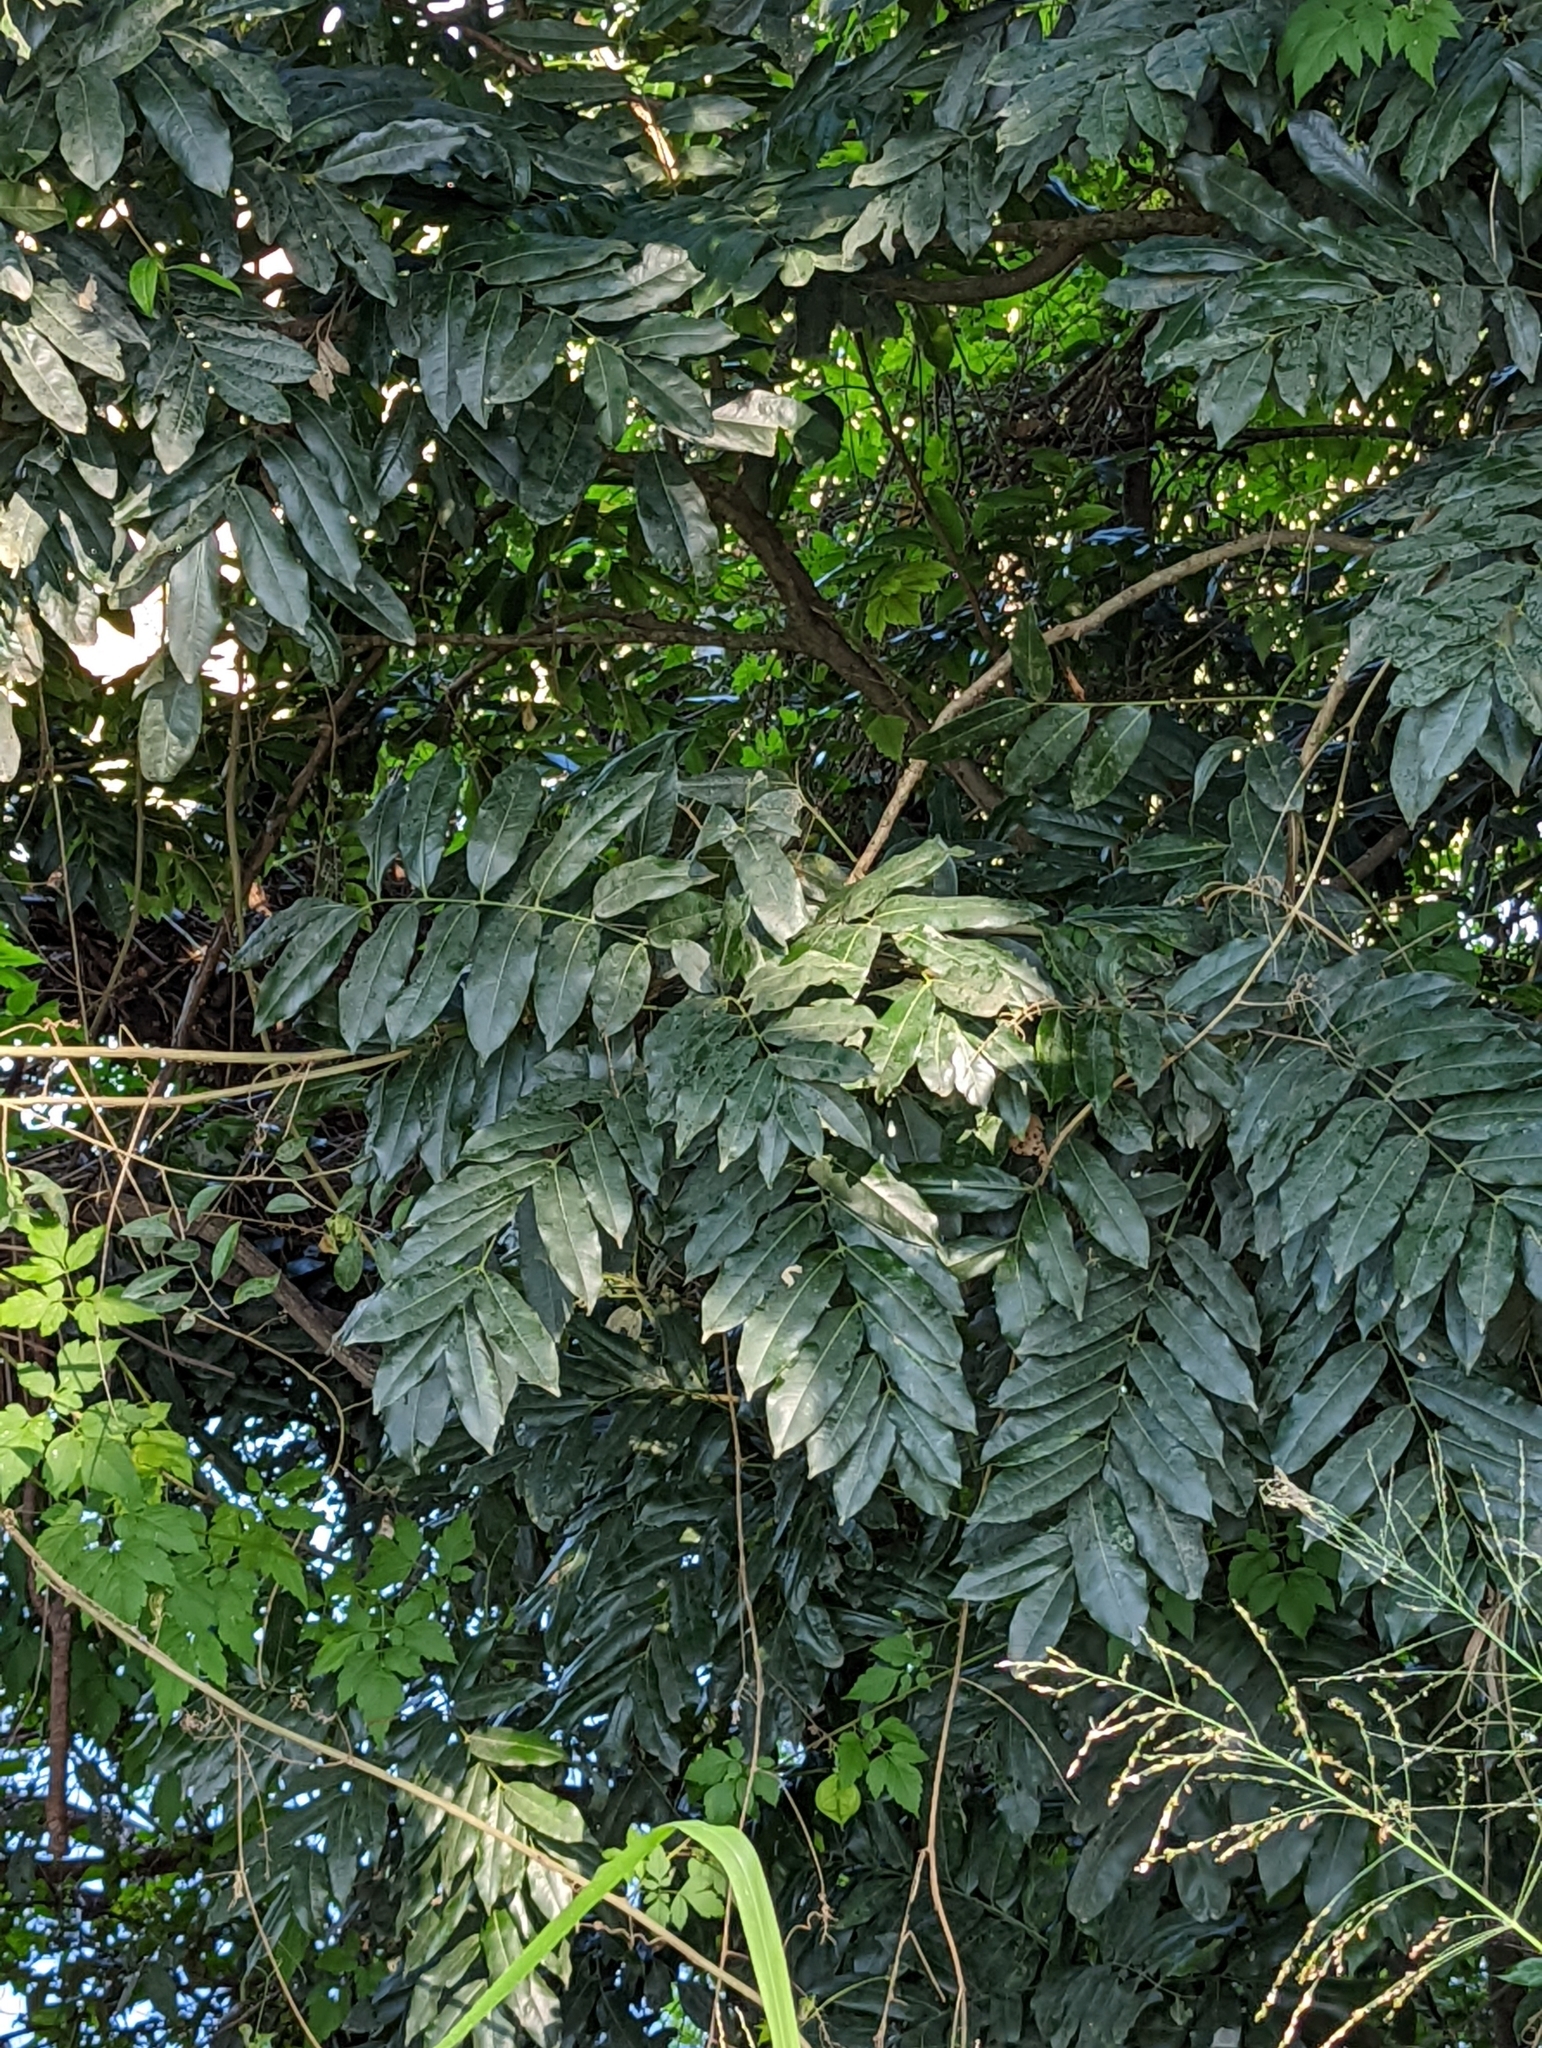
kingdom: Plantae
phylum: Tracheophyta
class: Magnoliopsida
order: Fabales
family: Fabaceae
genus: Castanospermum
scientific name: Castanospermum australe
